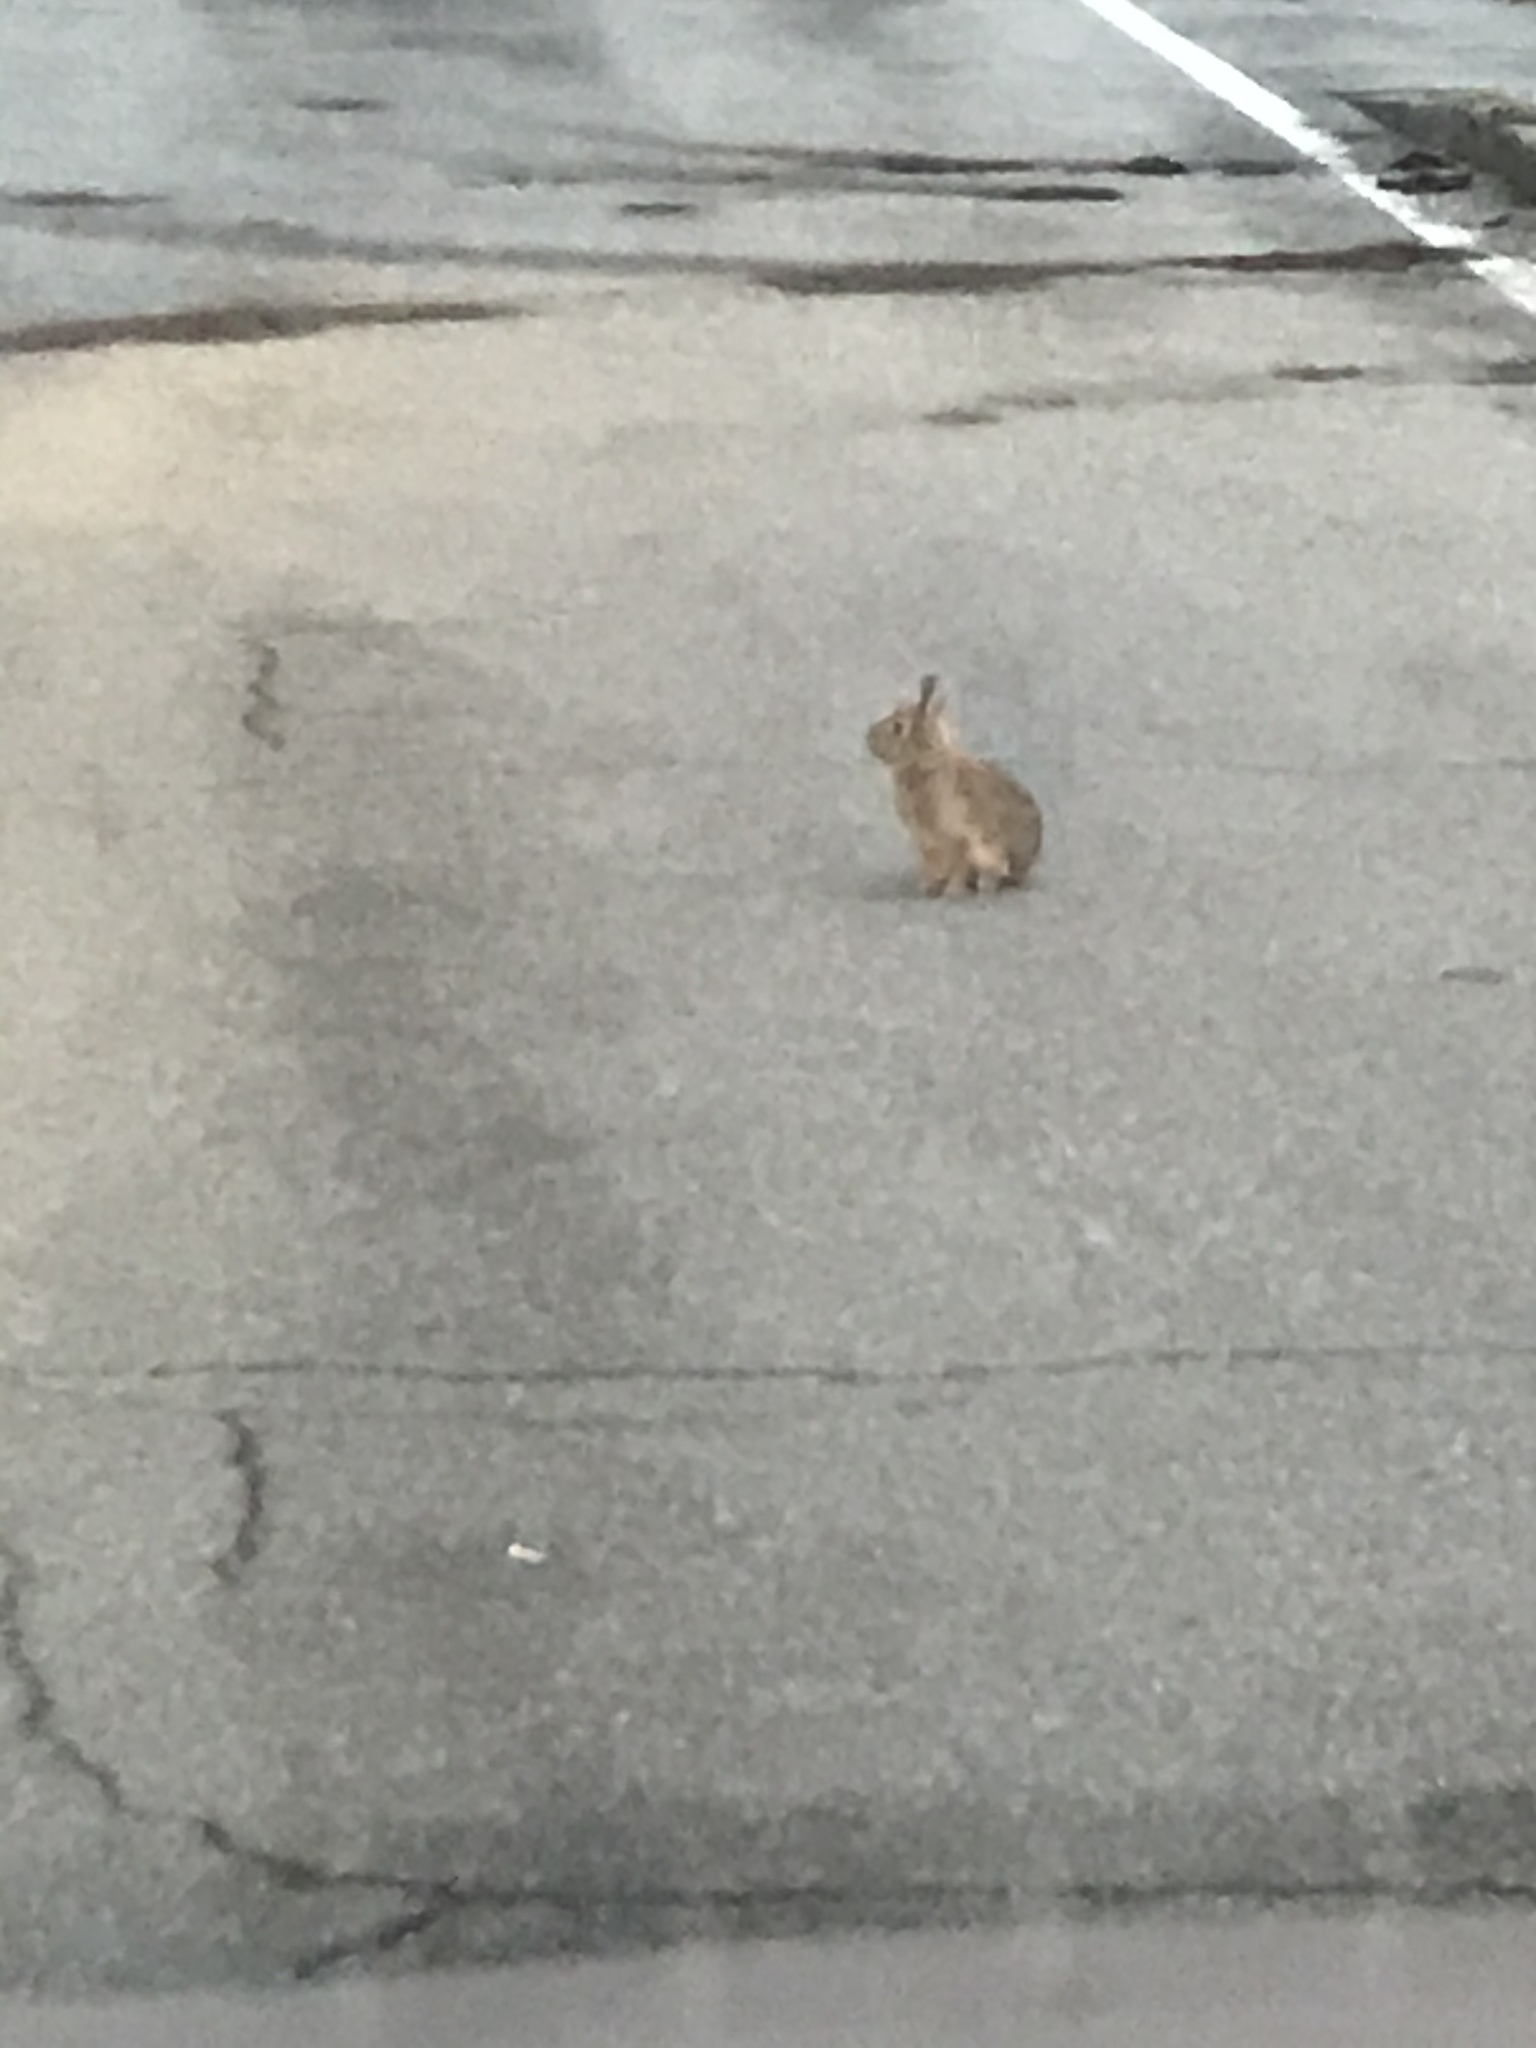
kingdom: Animalia
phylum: Chordata
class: Mammalia
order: Lagomorpha
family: Leporidae
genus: Sylvilagus
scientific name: Sylvilagus floridanus
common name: Eastern cottontail
